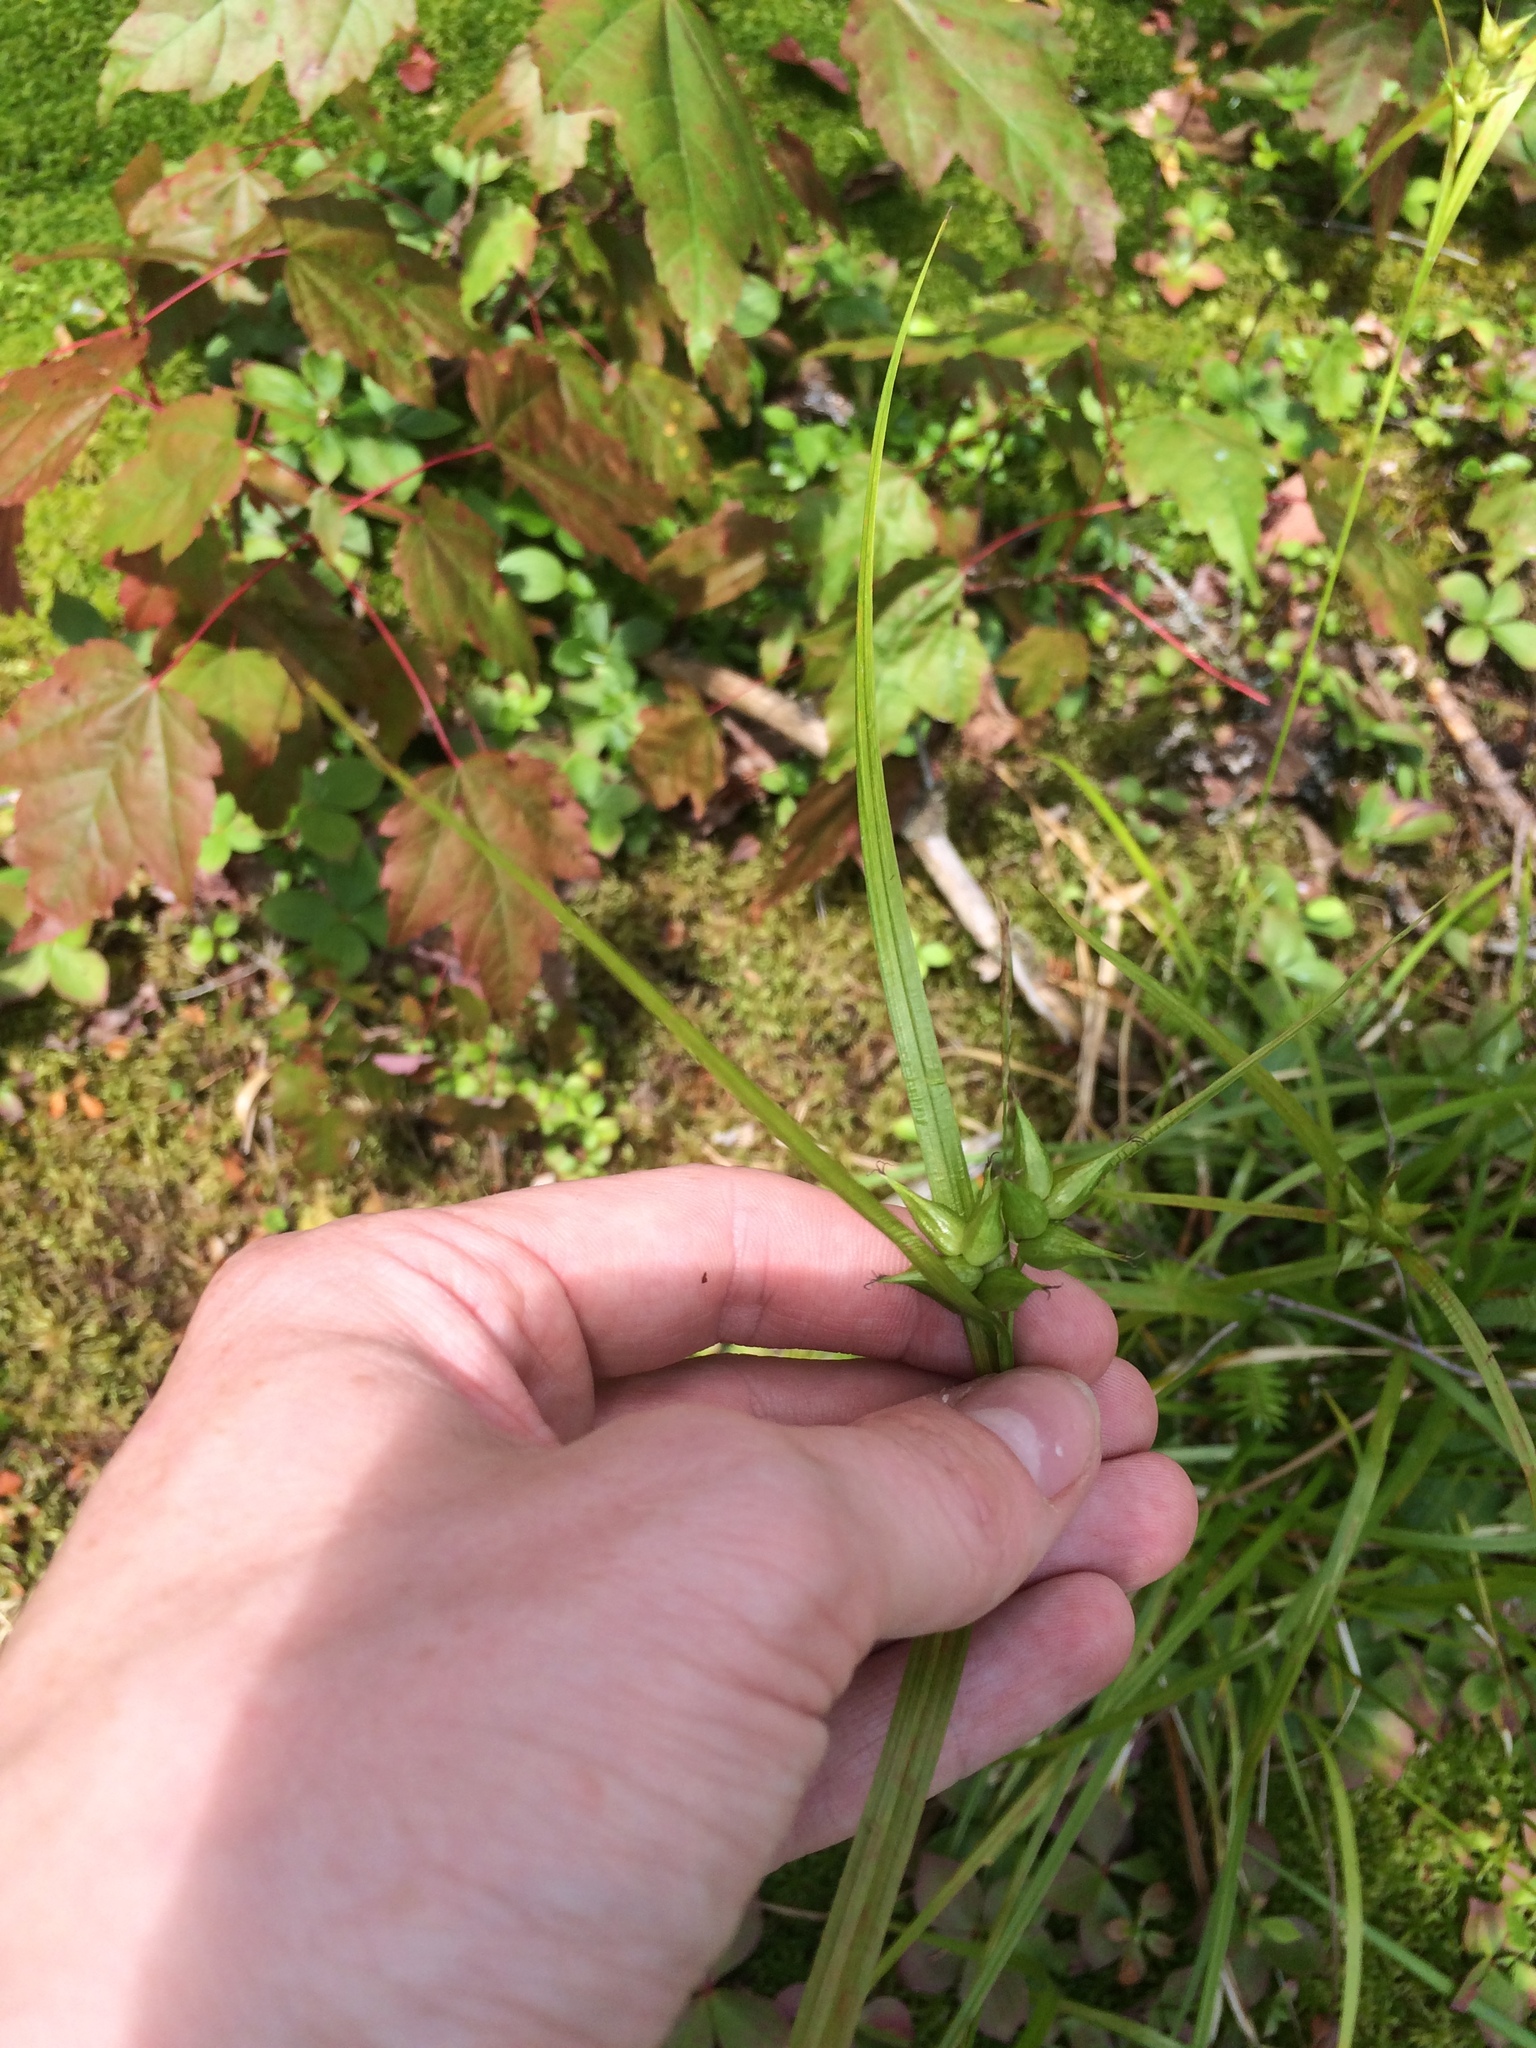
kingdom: Plantae
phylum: Tracheophyta
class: Liliopsida
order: Poales
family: Cyperaceae
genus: Carex
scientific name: Carex intumescens
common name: Greater bladder sedge
